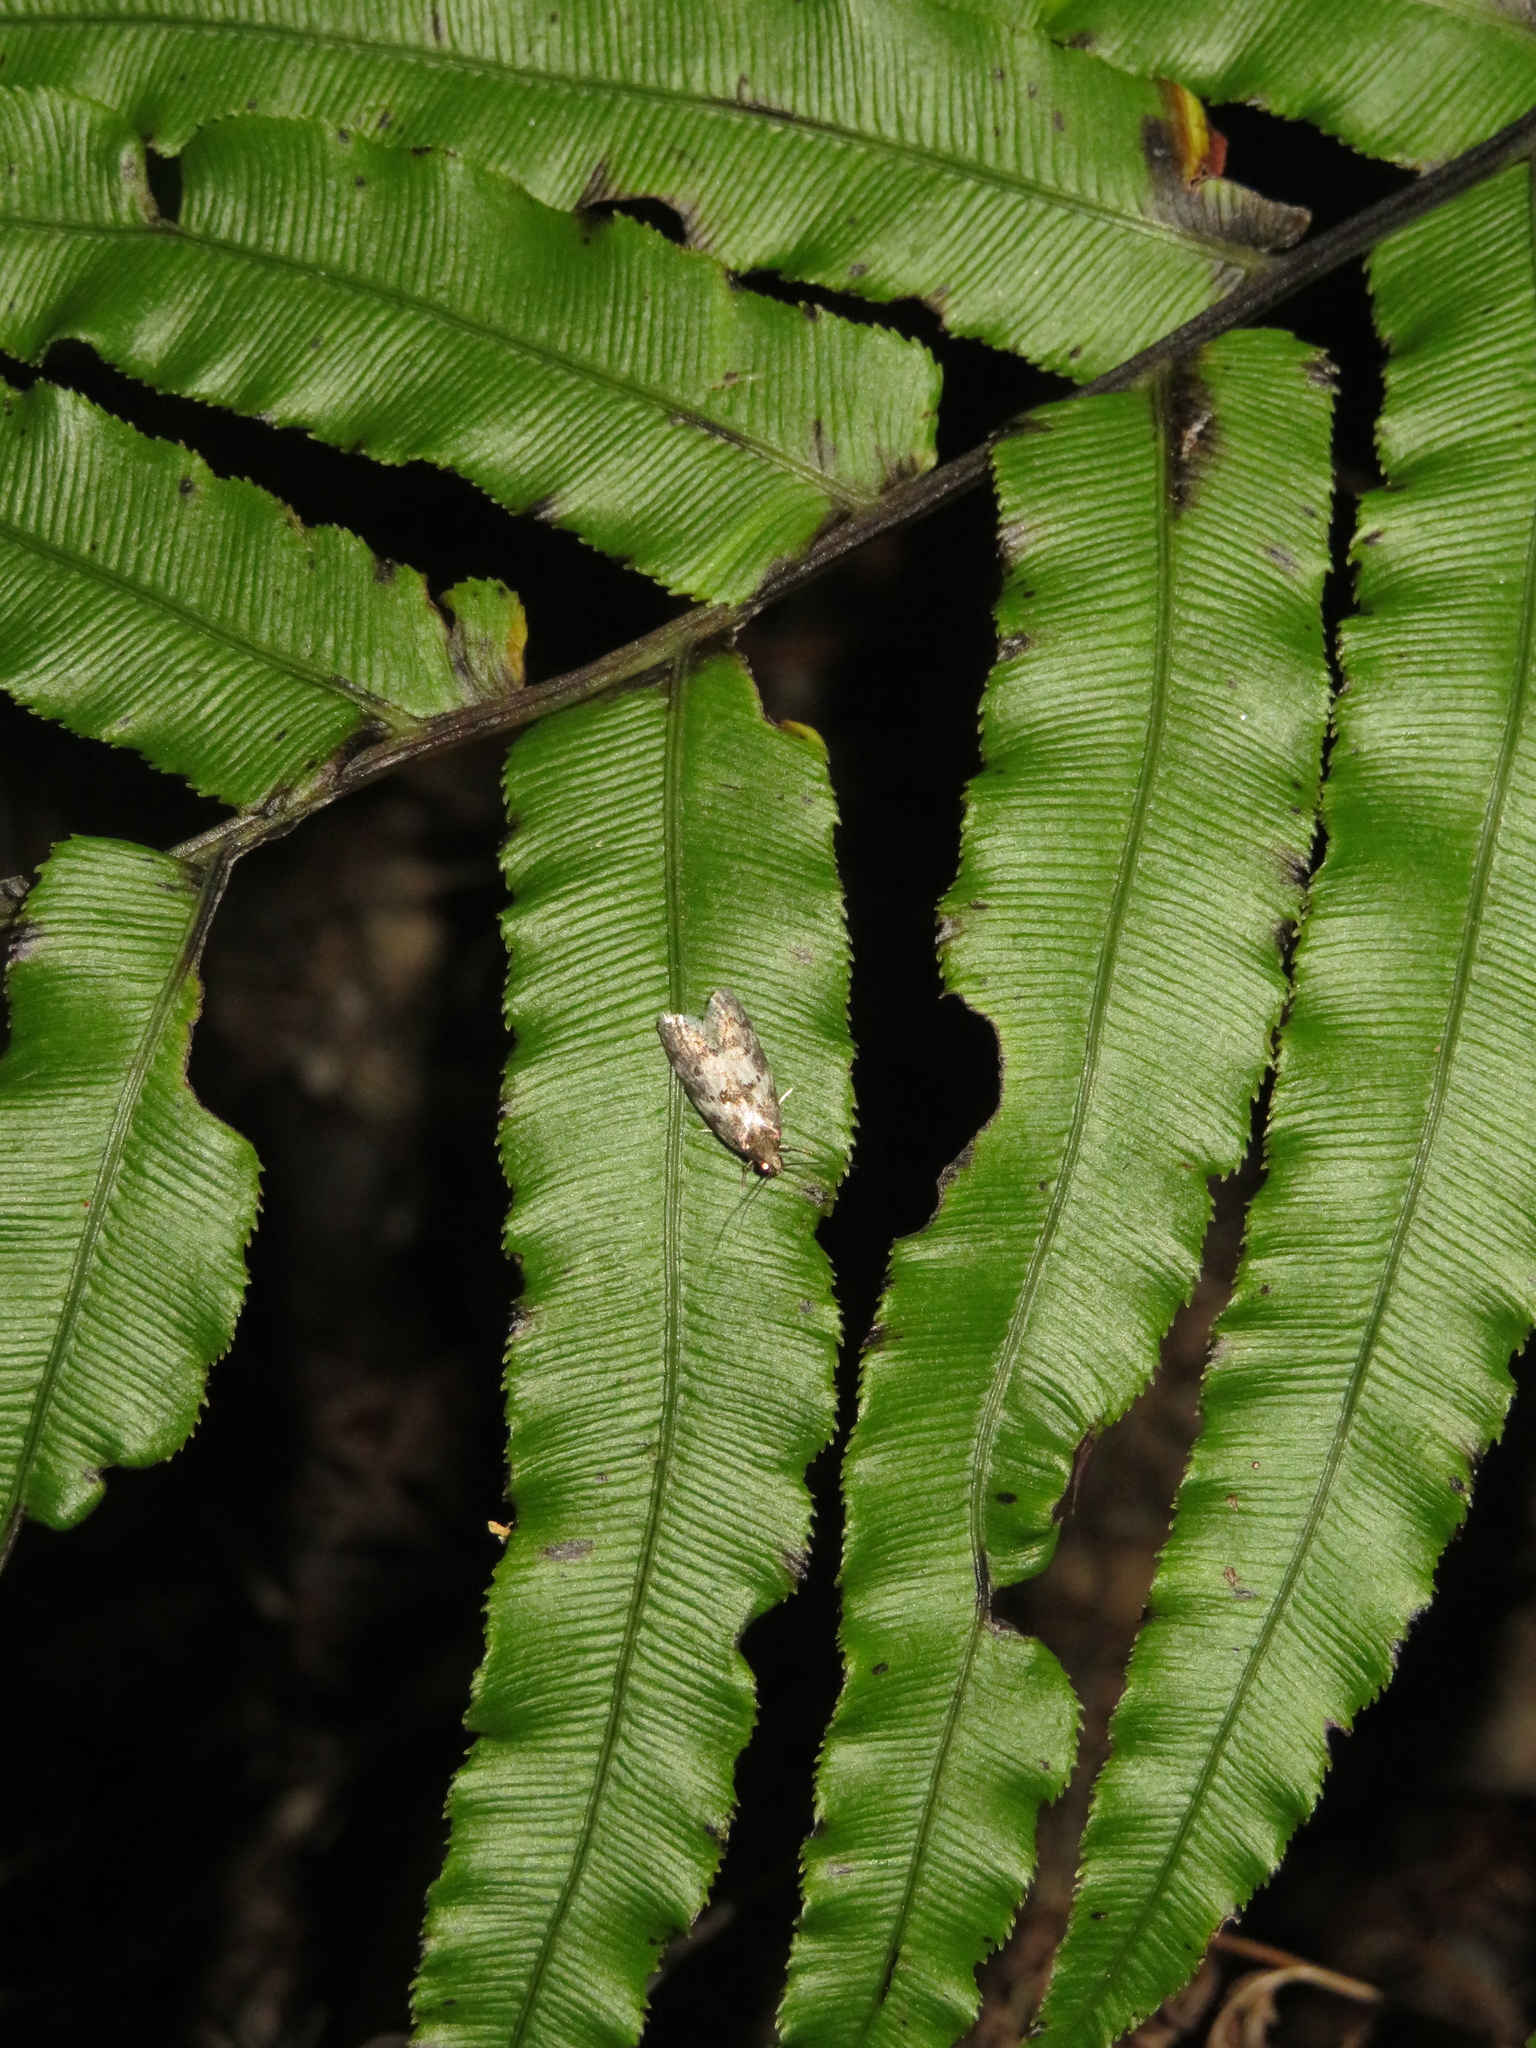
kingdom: Animalia
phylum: Arthropoda
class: Insecta
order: Lepidoptera
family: Oecophoridae
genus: Tingena
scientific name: Tingena clarkei
